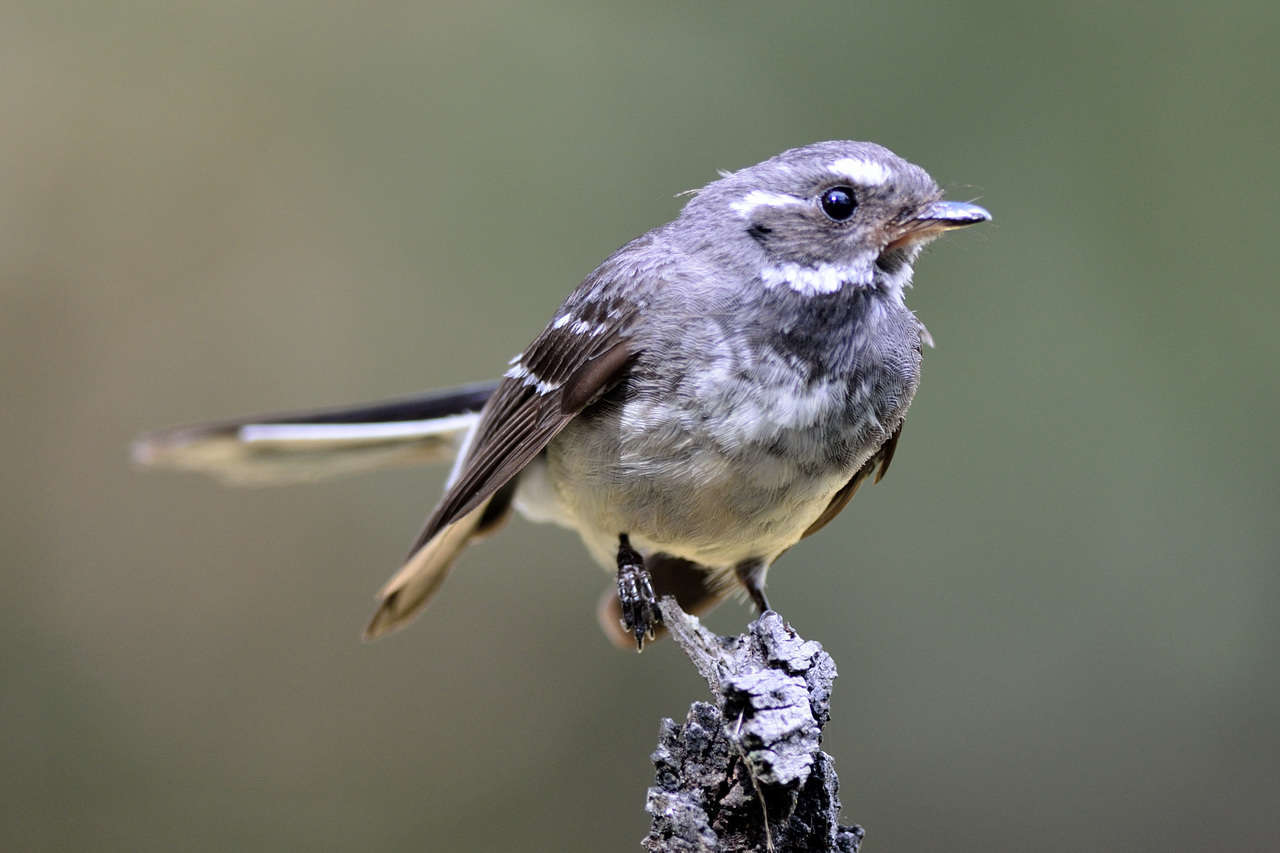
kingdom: Animalia
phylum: Chordata
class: Aves
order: Passeriformes
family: Rhipiduridae
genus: Rhipidura
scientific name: Rhipidura albiscapa
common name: Grey fantail
